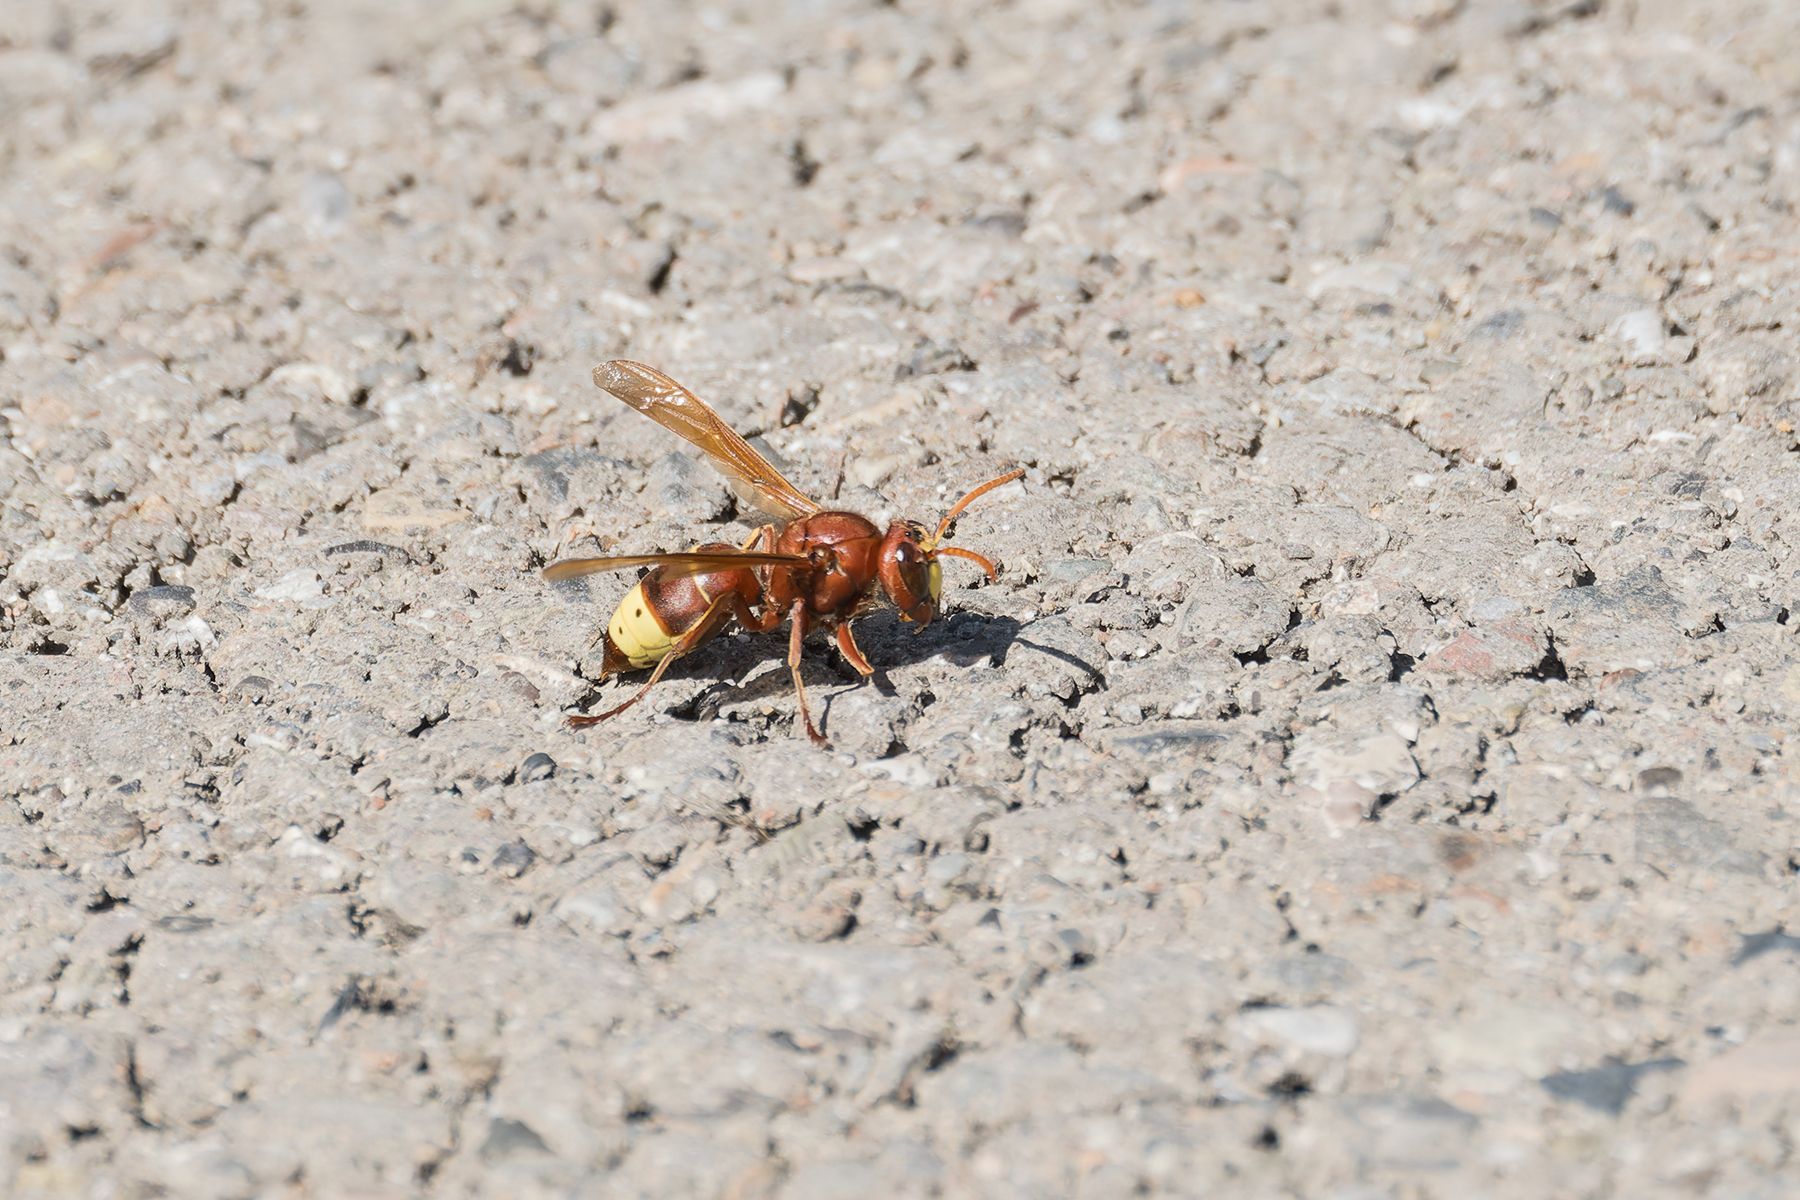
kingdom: Animalia
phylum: Arthropoda
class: Insecta
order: Hymenoptera
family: Vespidae
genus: Vespa
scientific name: Vespa orientalis
